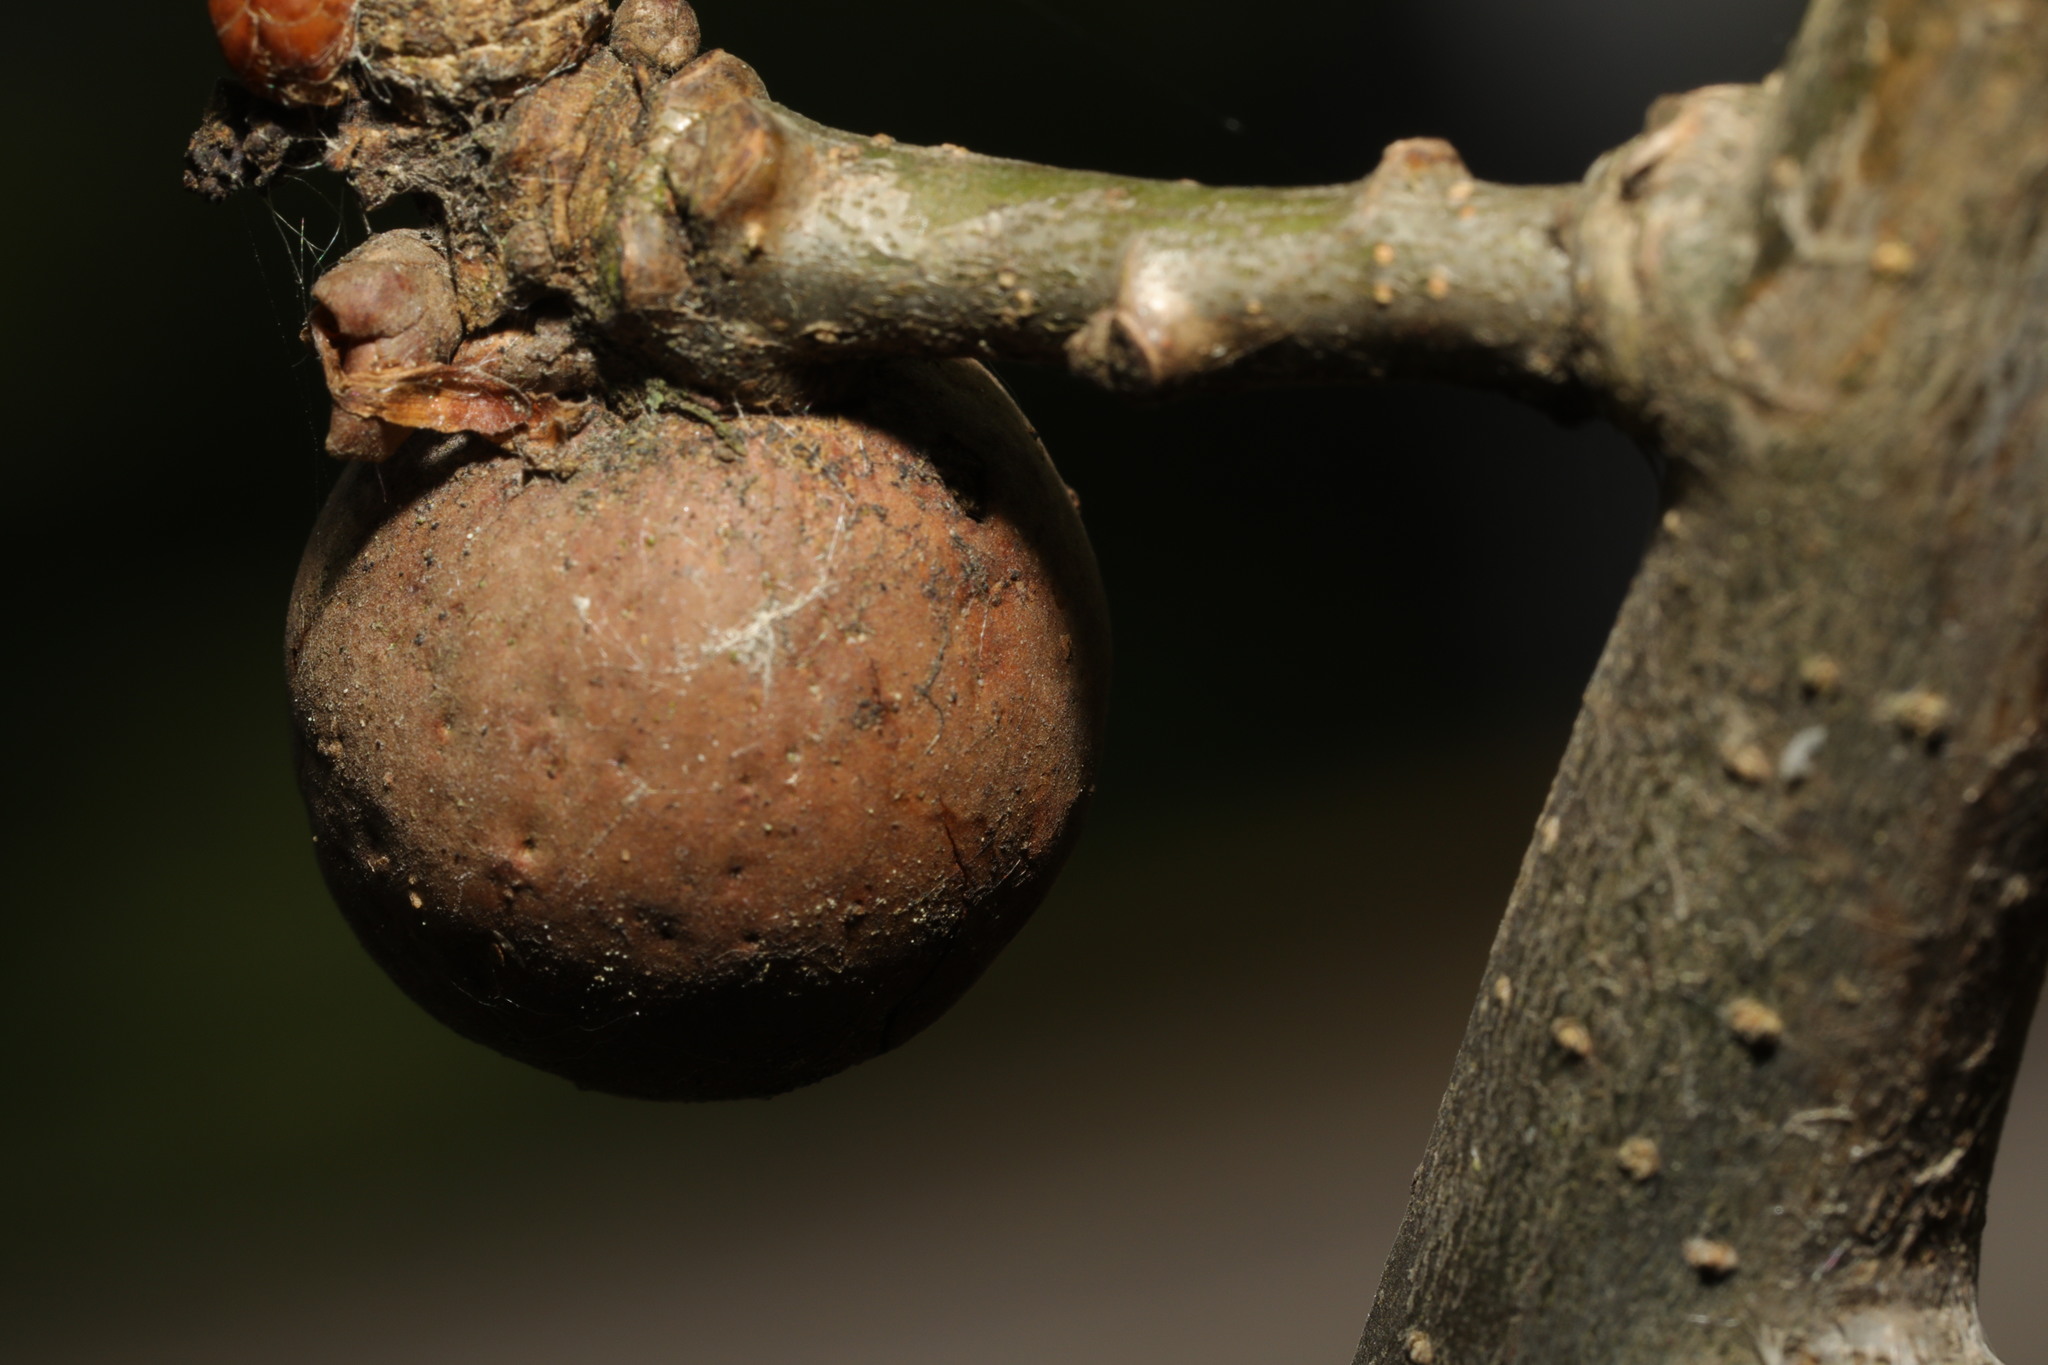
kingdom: Animalia
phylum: Arthropoda
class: Insecta
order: Hymenoptera
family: Cynipidae
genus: Andricus
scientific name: Andricus kollari
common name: Marble gall
